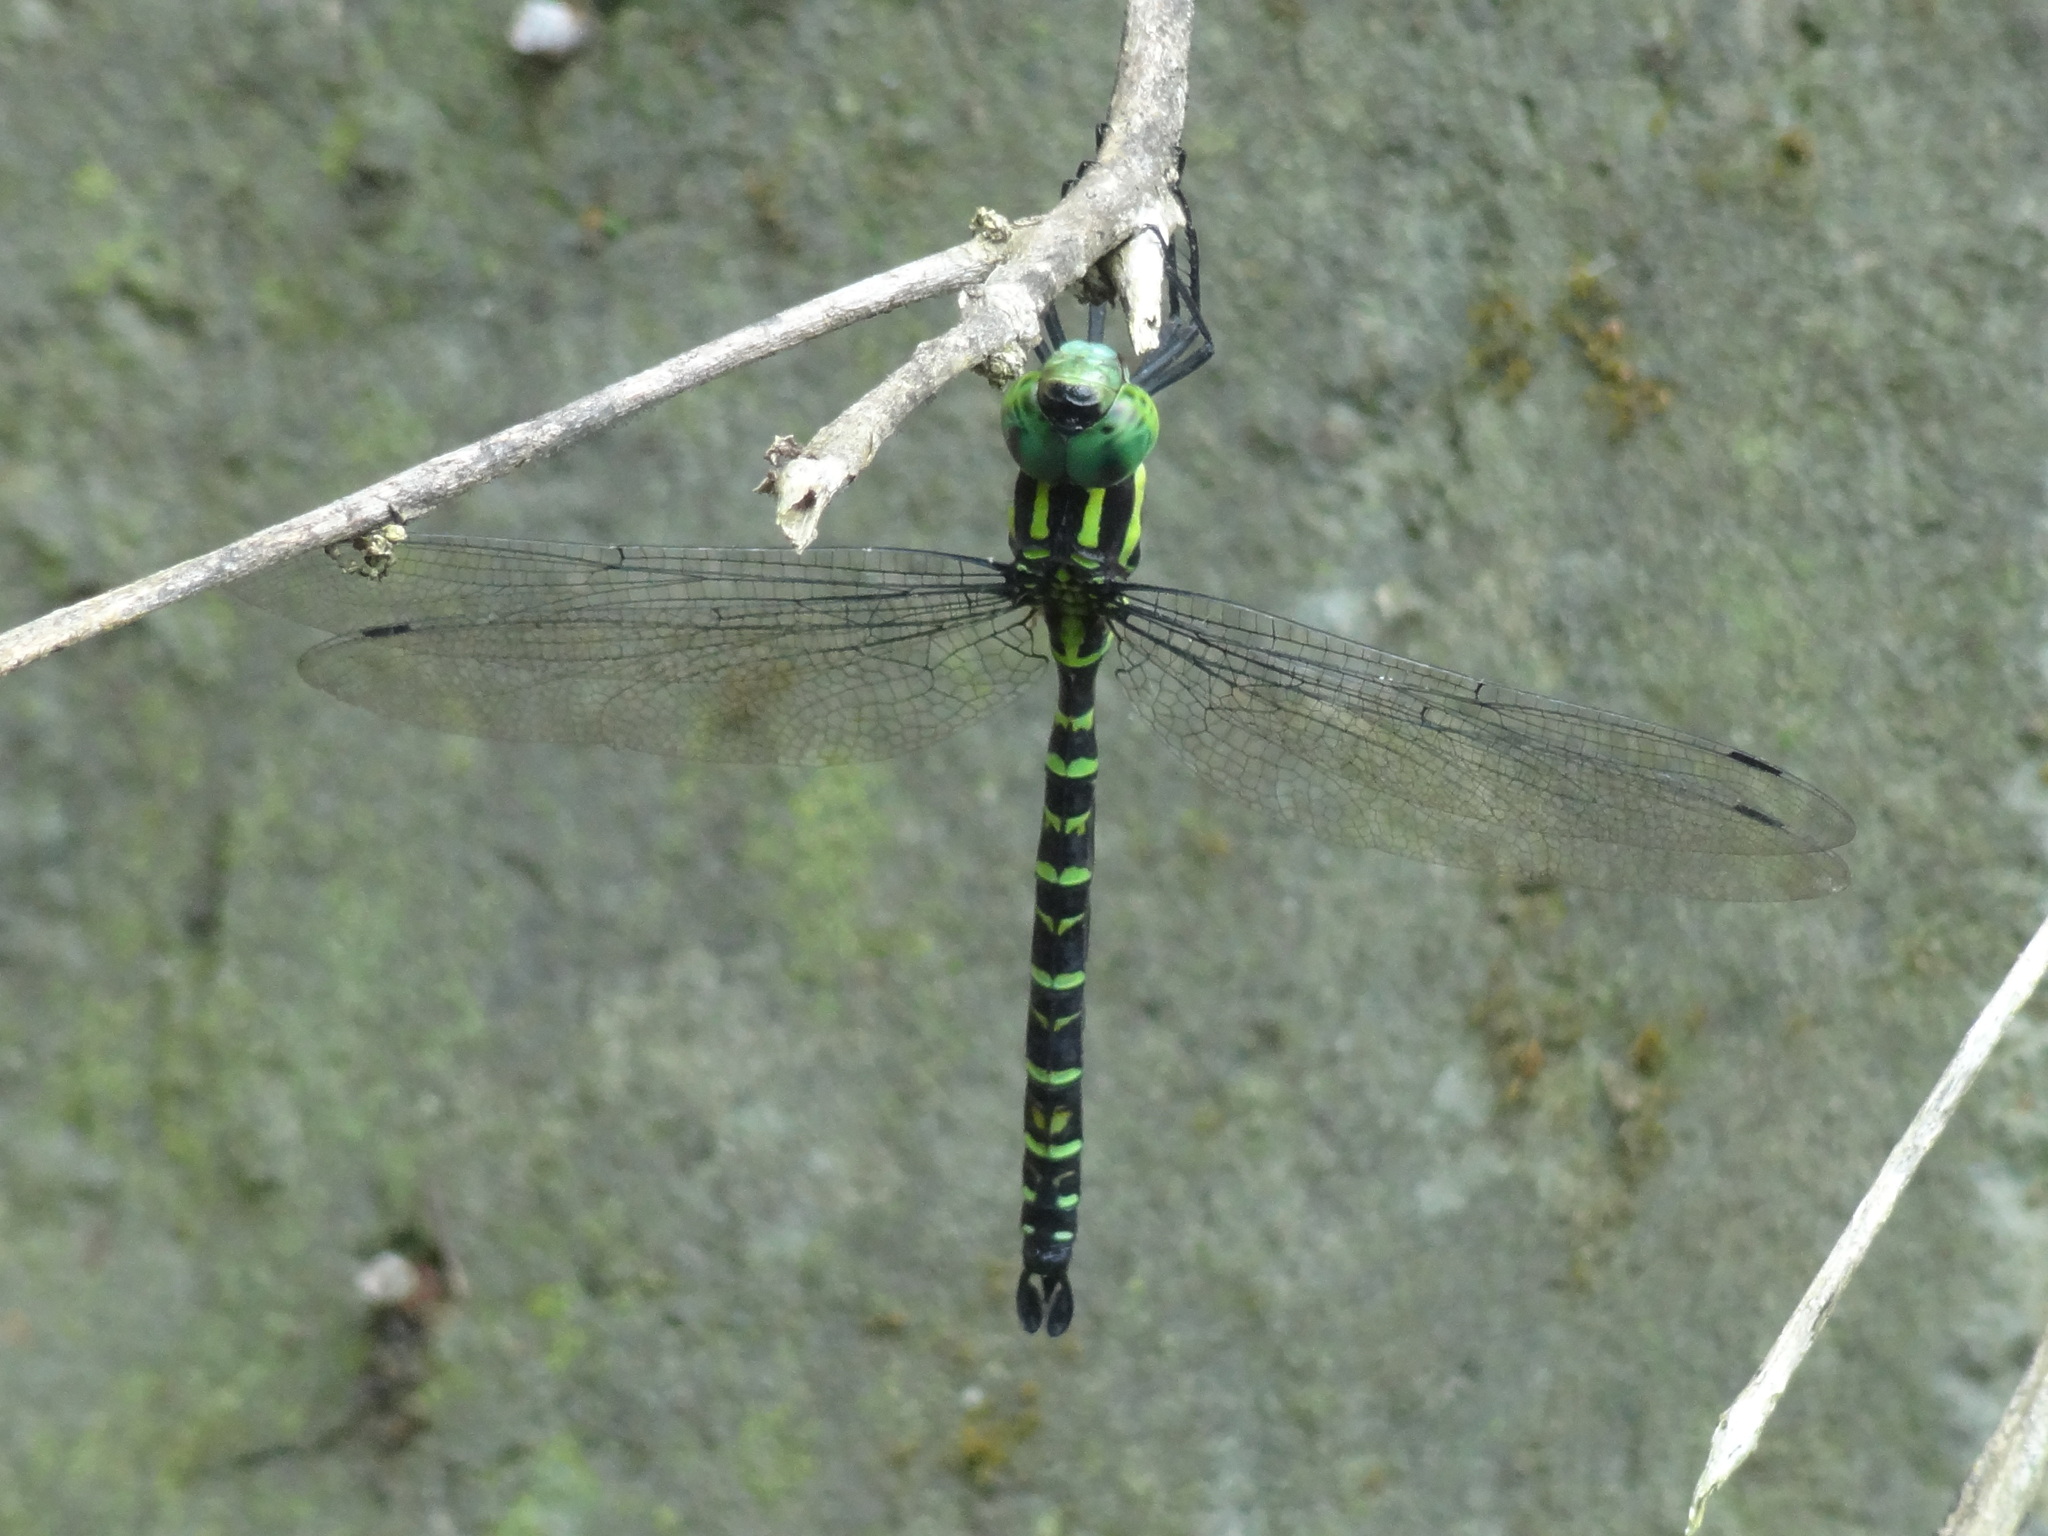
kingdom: Animalia
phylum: Arthropoda
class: Insecta
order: Odonata
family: Aeshnidae
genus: Indaeschna
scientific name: Indaeschna
